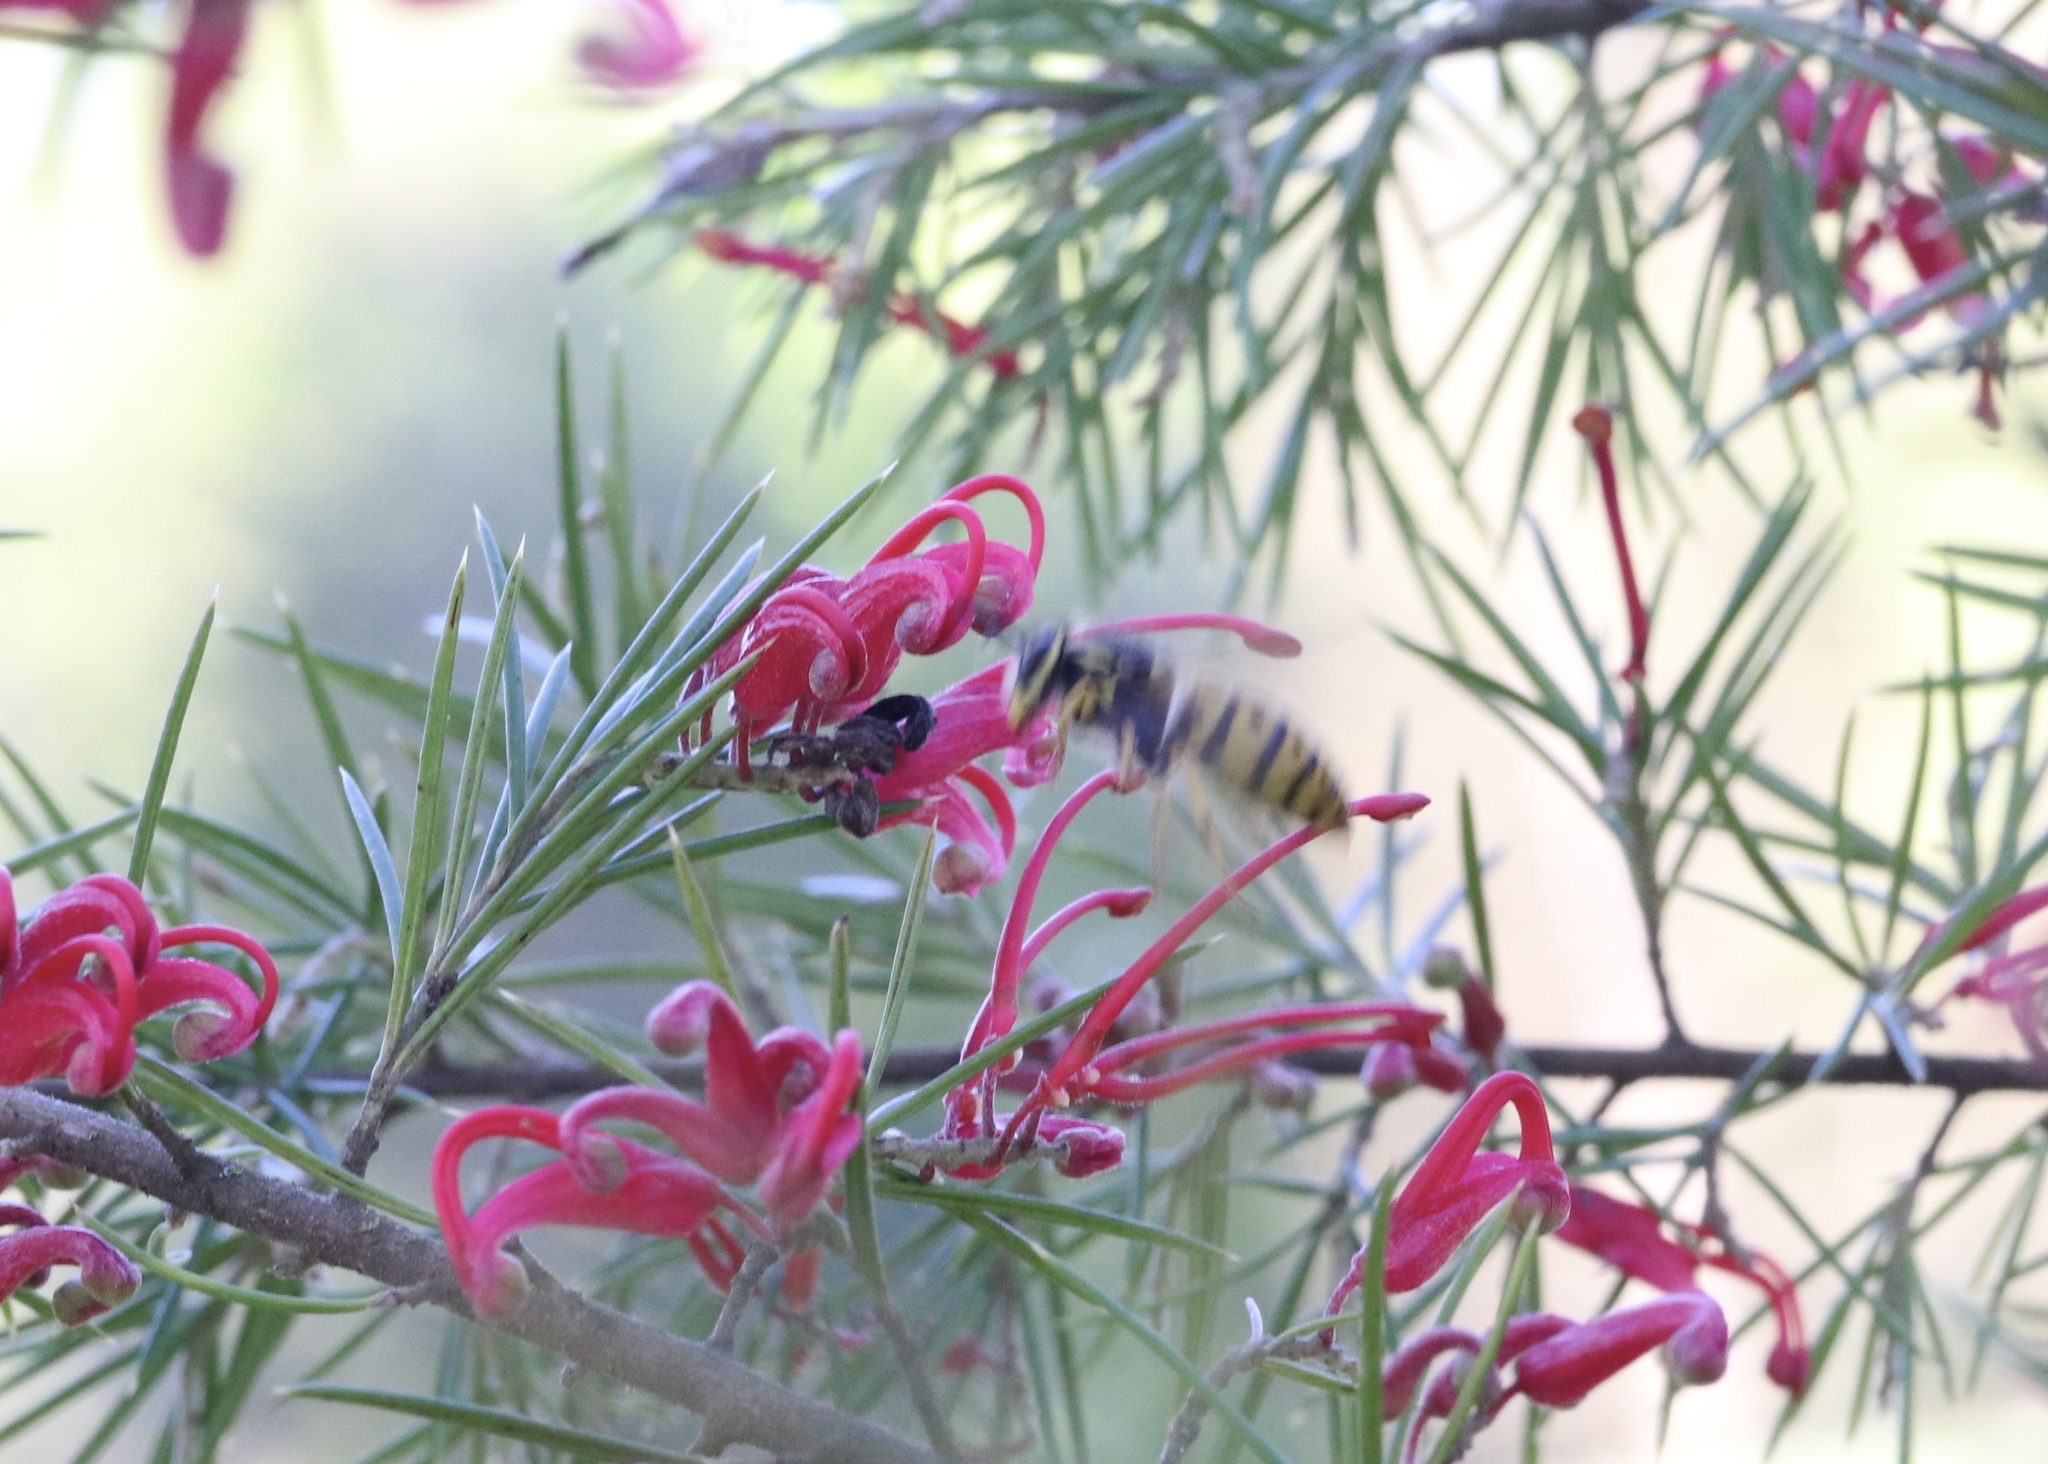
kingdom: Animalia
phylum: Arthropoda
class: Insecta
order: Hymenoptera
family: Vespidae
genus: Vespula
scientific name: Vespula germanica
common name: German wasp
